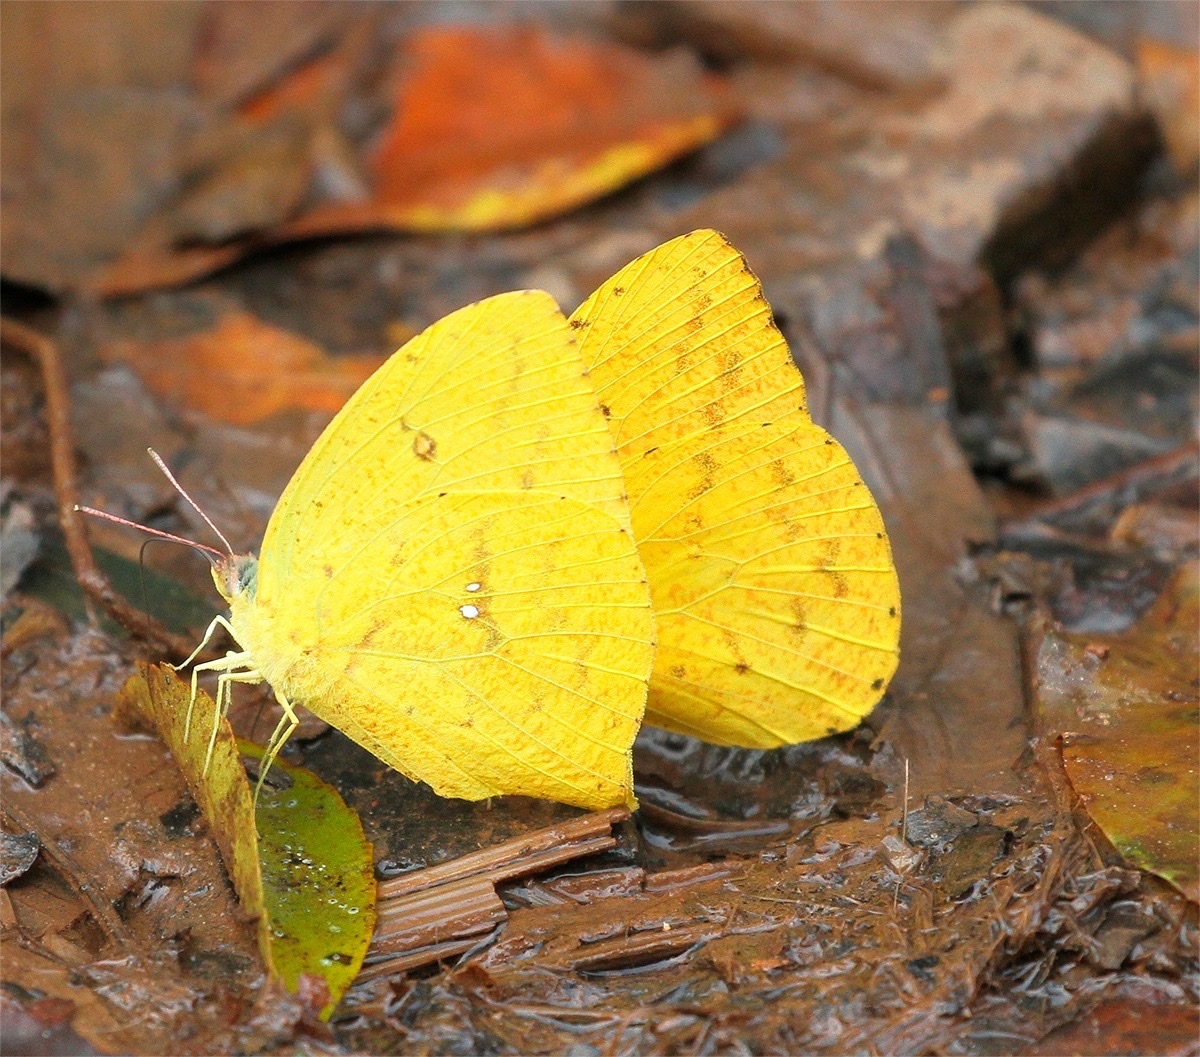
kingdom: Animalia
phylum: Arthropoda
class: Insecta
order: Lepidoptera
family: Pieridae
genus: Phoebis
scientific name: Phoebis neocypris
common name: Tailed sulphur
